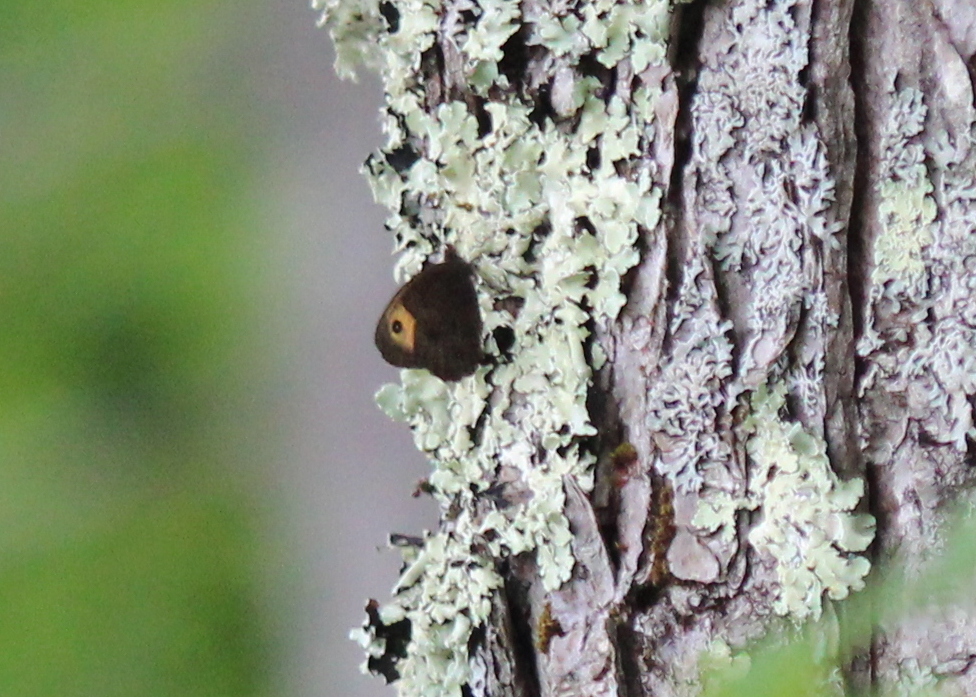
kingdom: Animalia
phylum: Arthropoda
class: Insecta
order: Lepidoptera
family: Nymphalidae
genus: Cercyonis
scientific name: Cercyonis pegala
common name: Common wood-nymph
